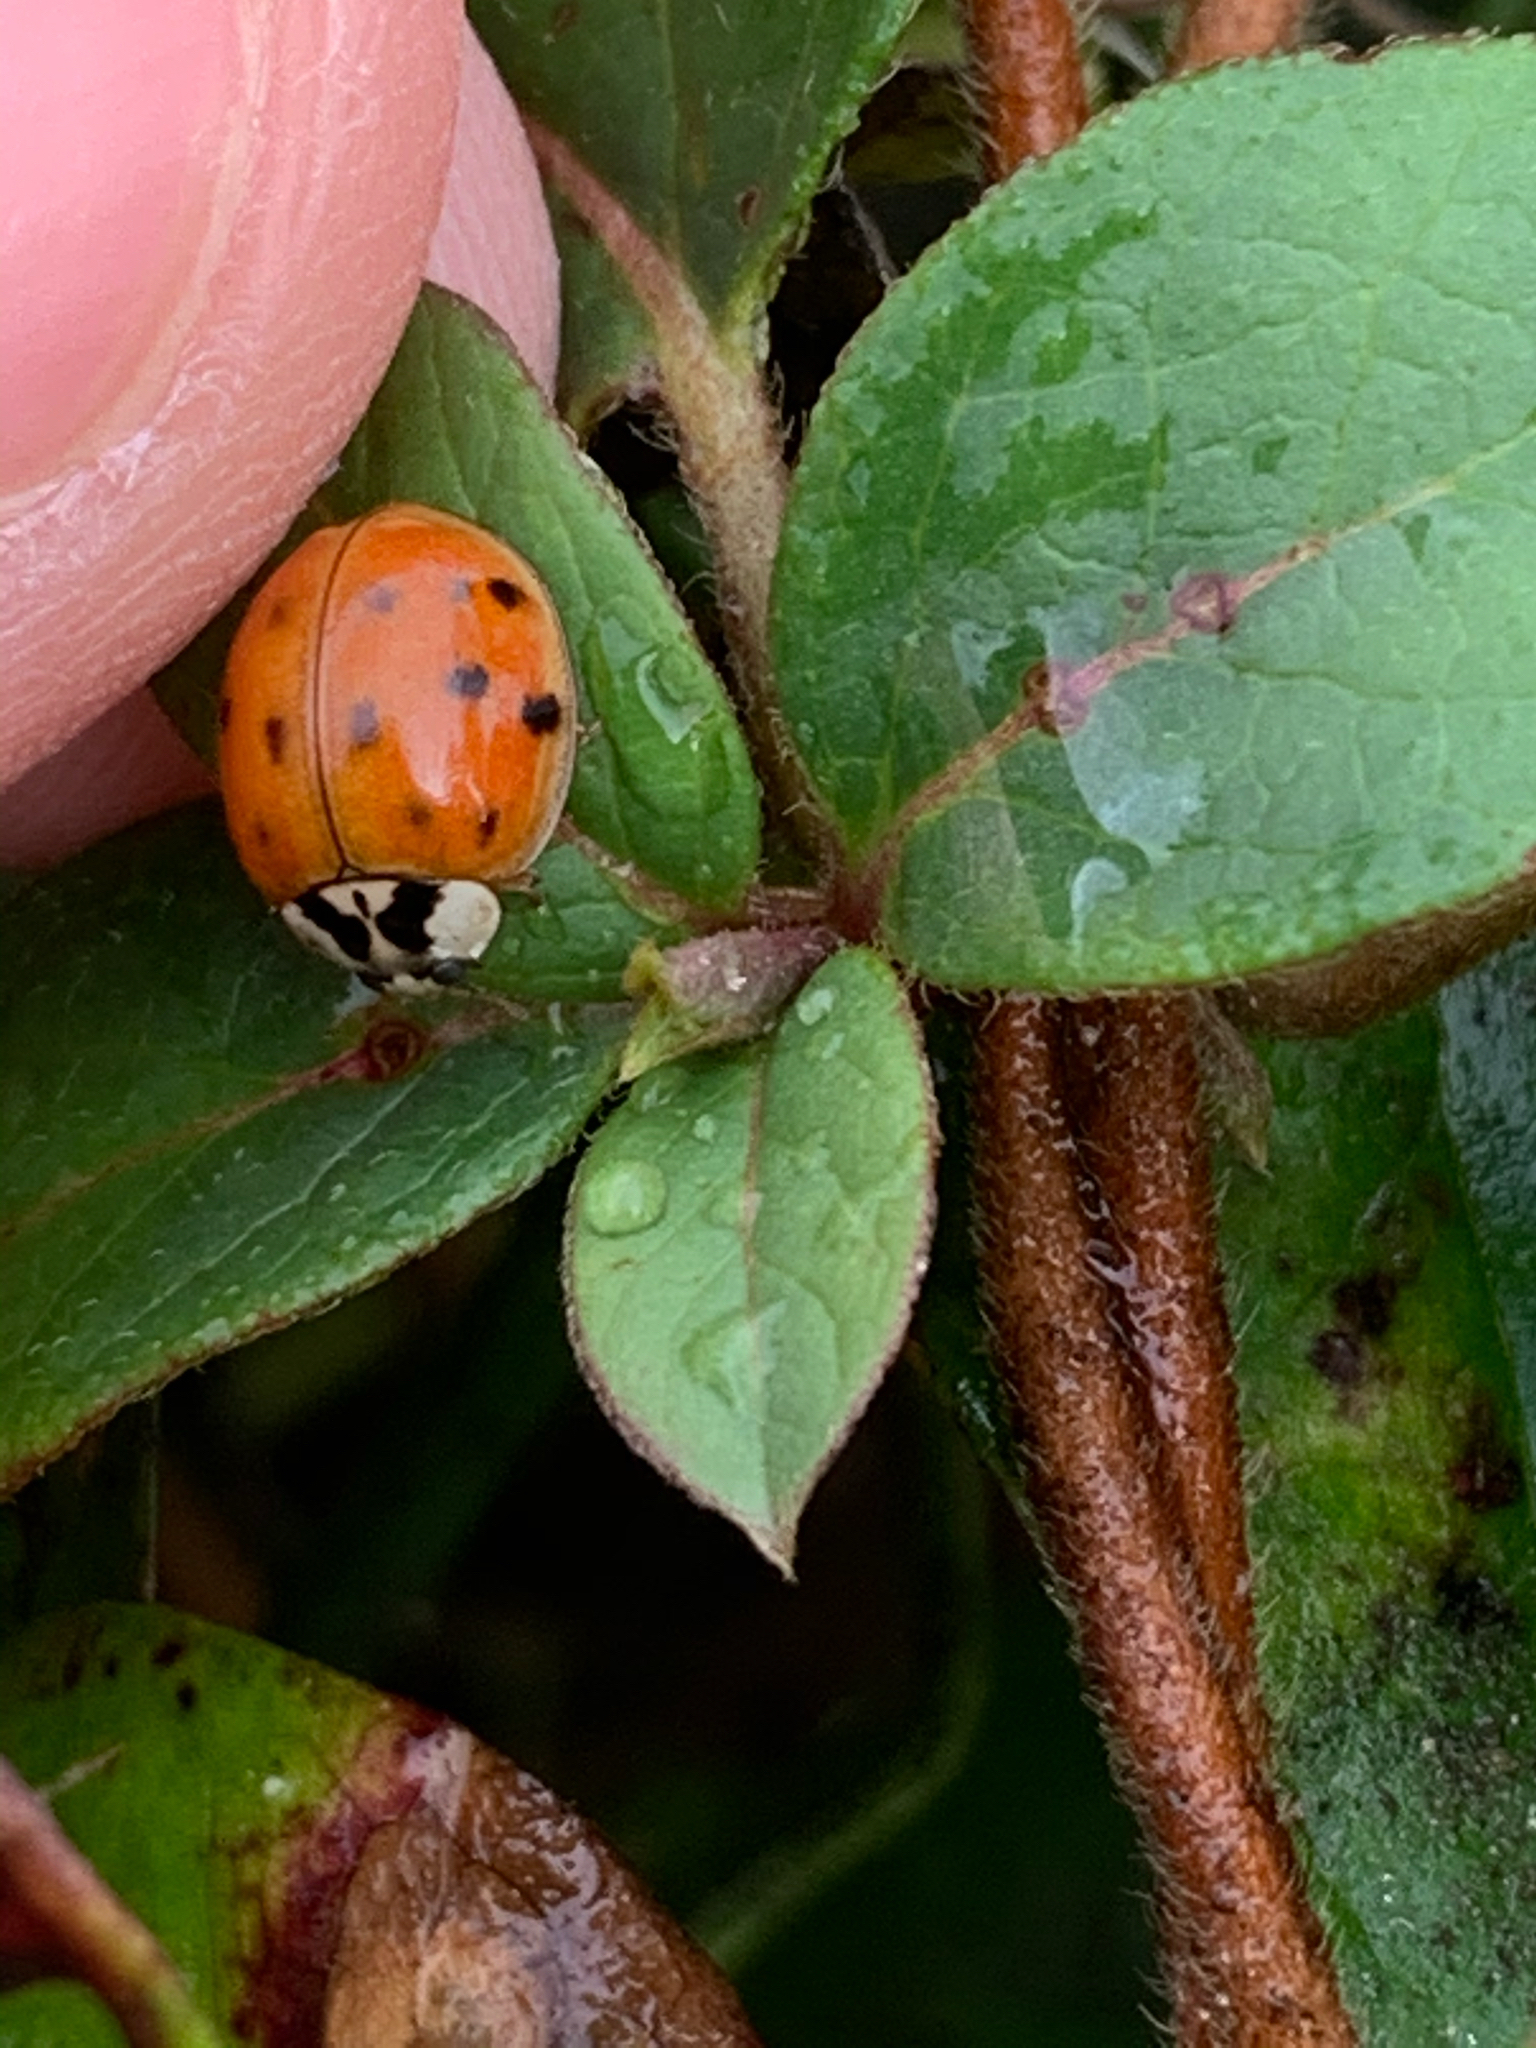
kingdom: Animalia
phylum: Arthropoda
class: Insecta
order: Coleoptera
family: Coccinellidae
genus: Harmonia
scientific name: Harmonia axyridis
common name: Harlequin ladybird
